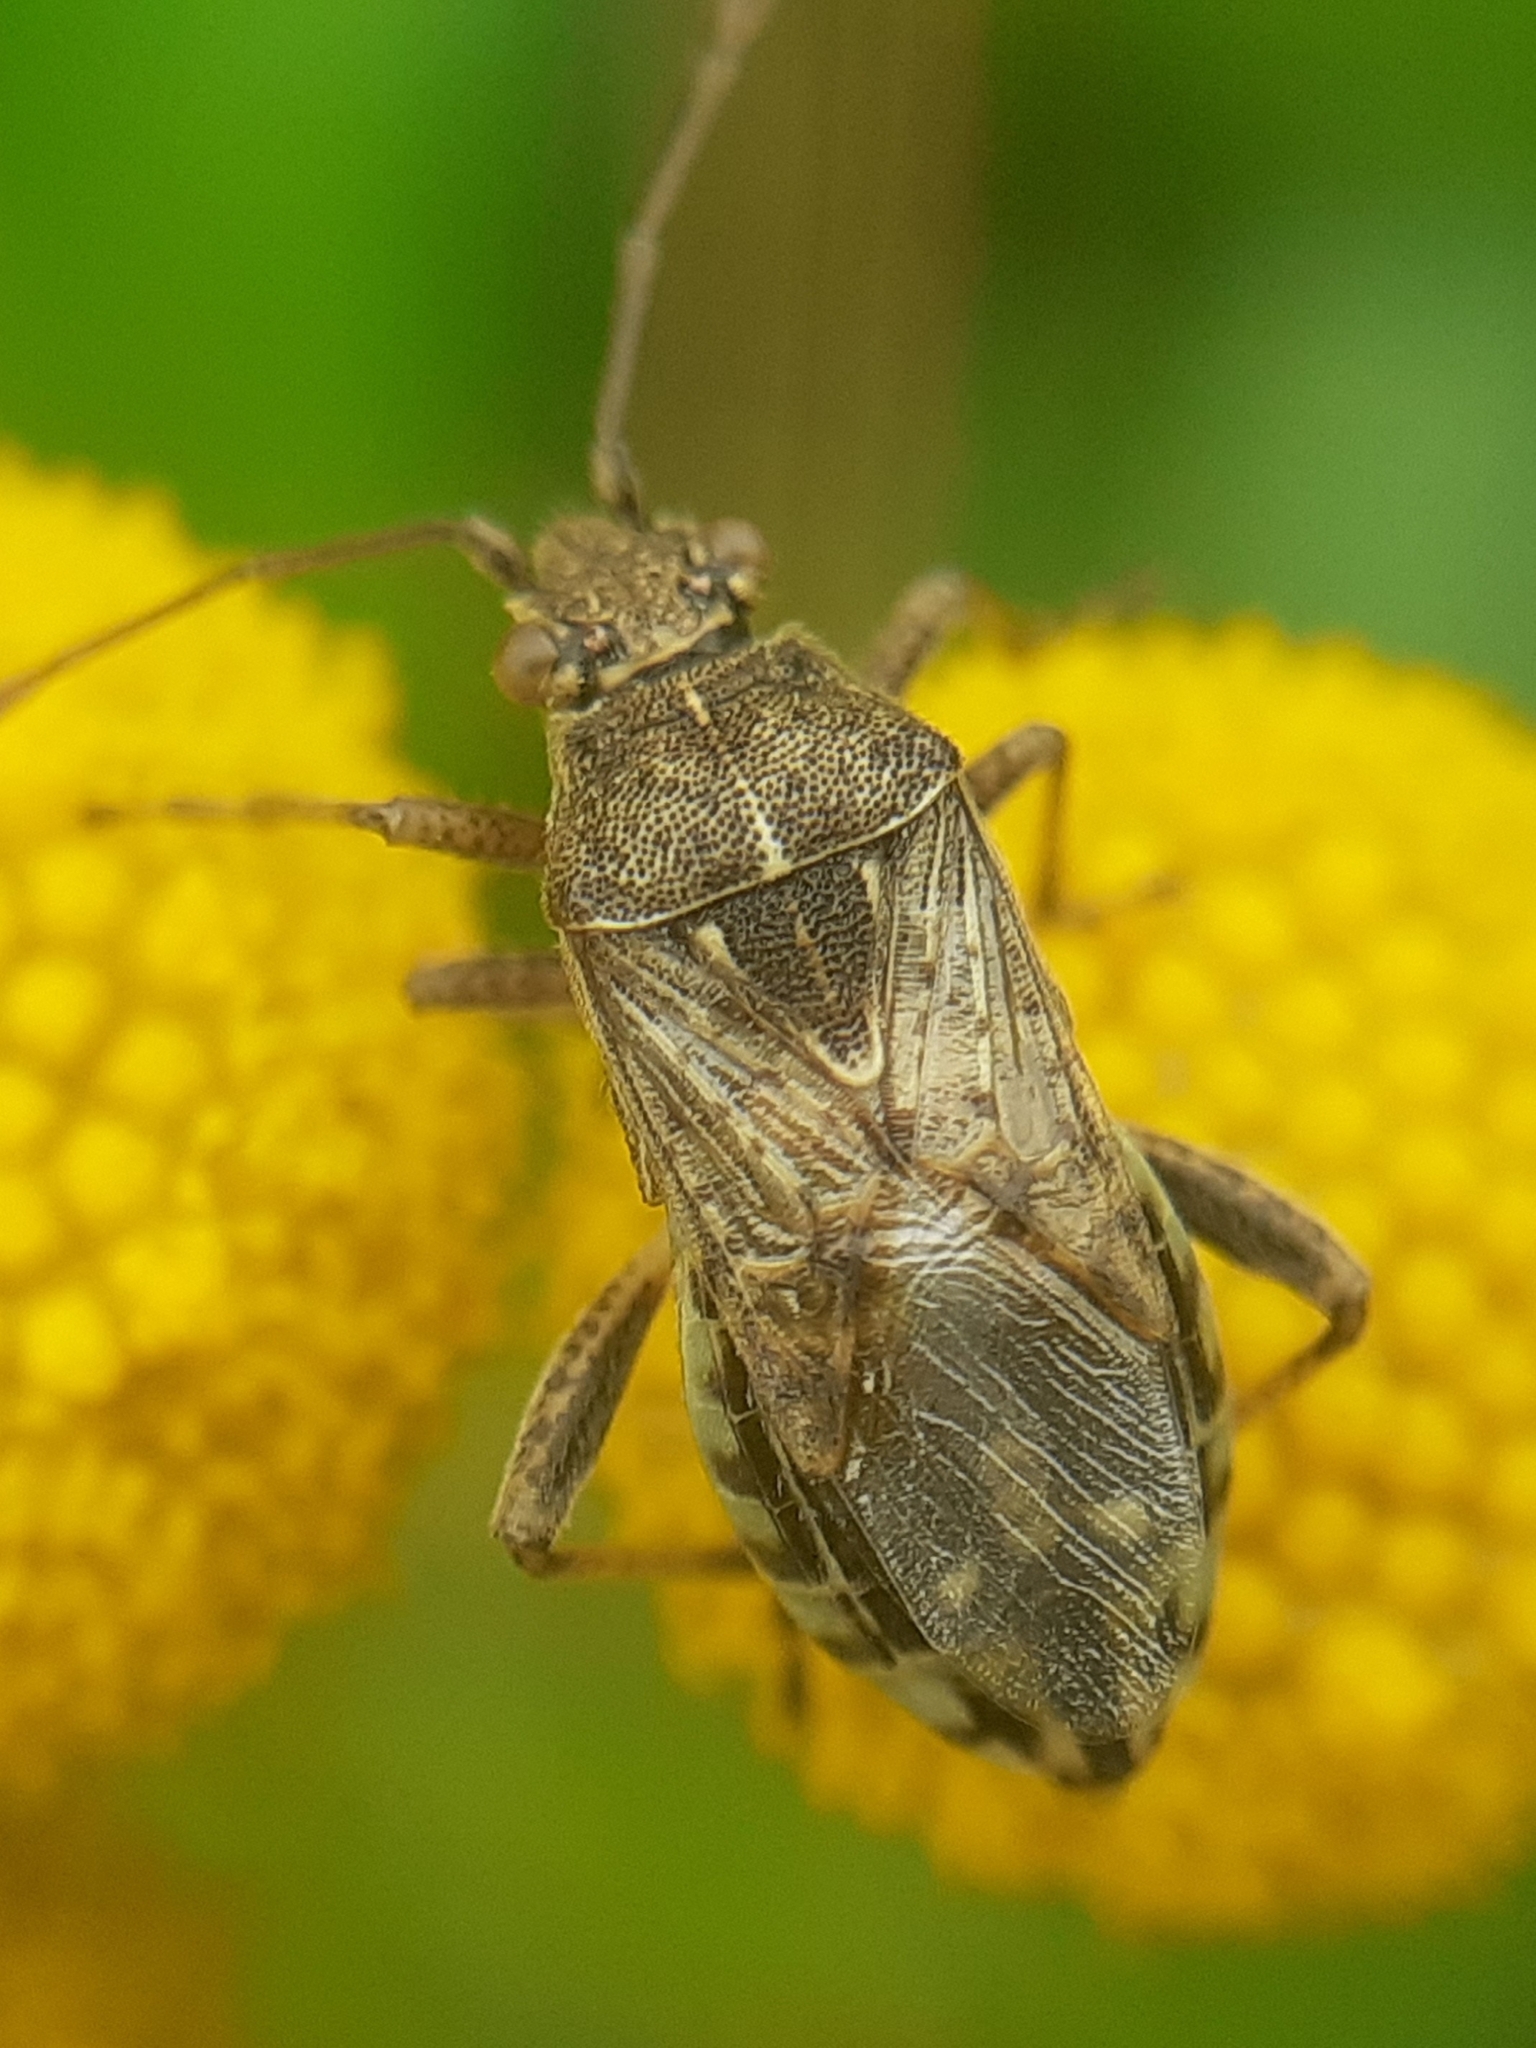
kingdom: Animalia
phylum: Arthropoda
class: Insecta
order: Hemiptera
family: Rhopalidae
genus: Stictopleurus
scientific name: Stictopleurus punctatonervosus
